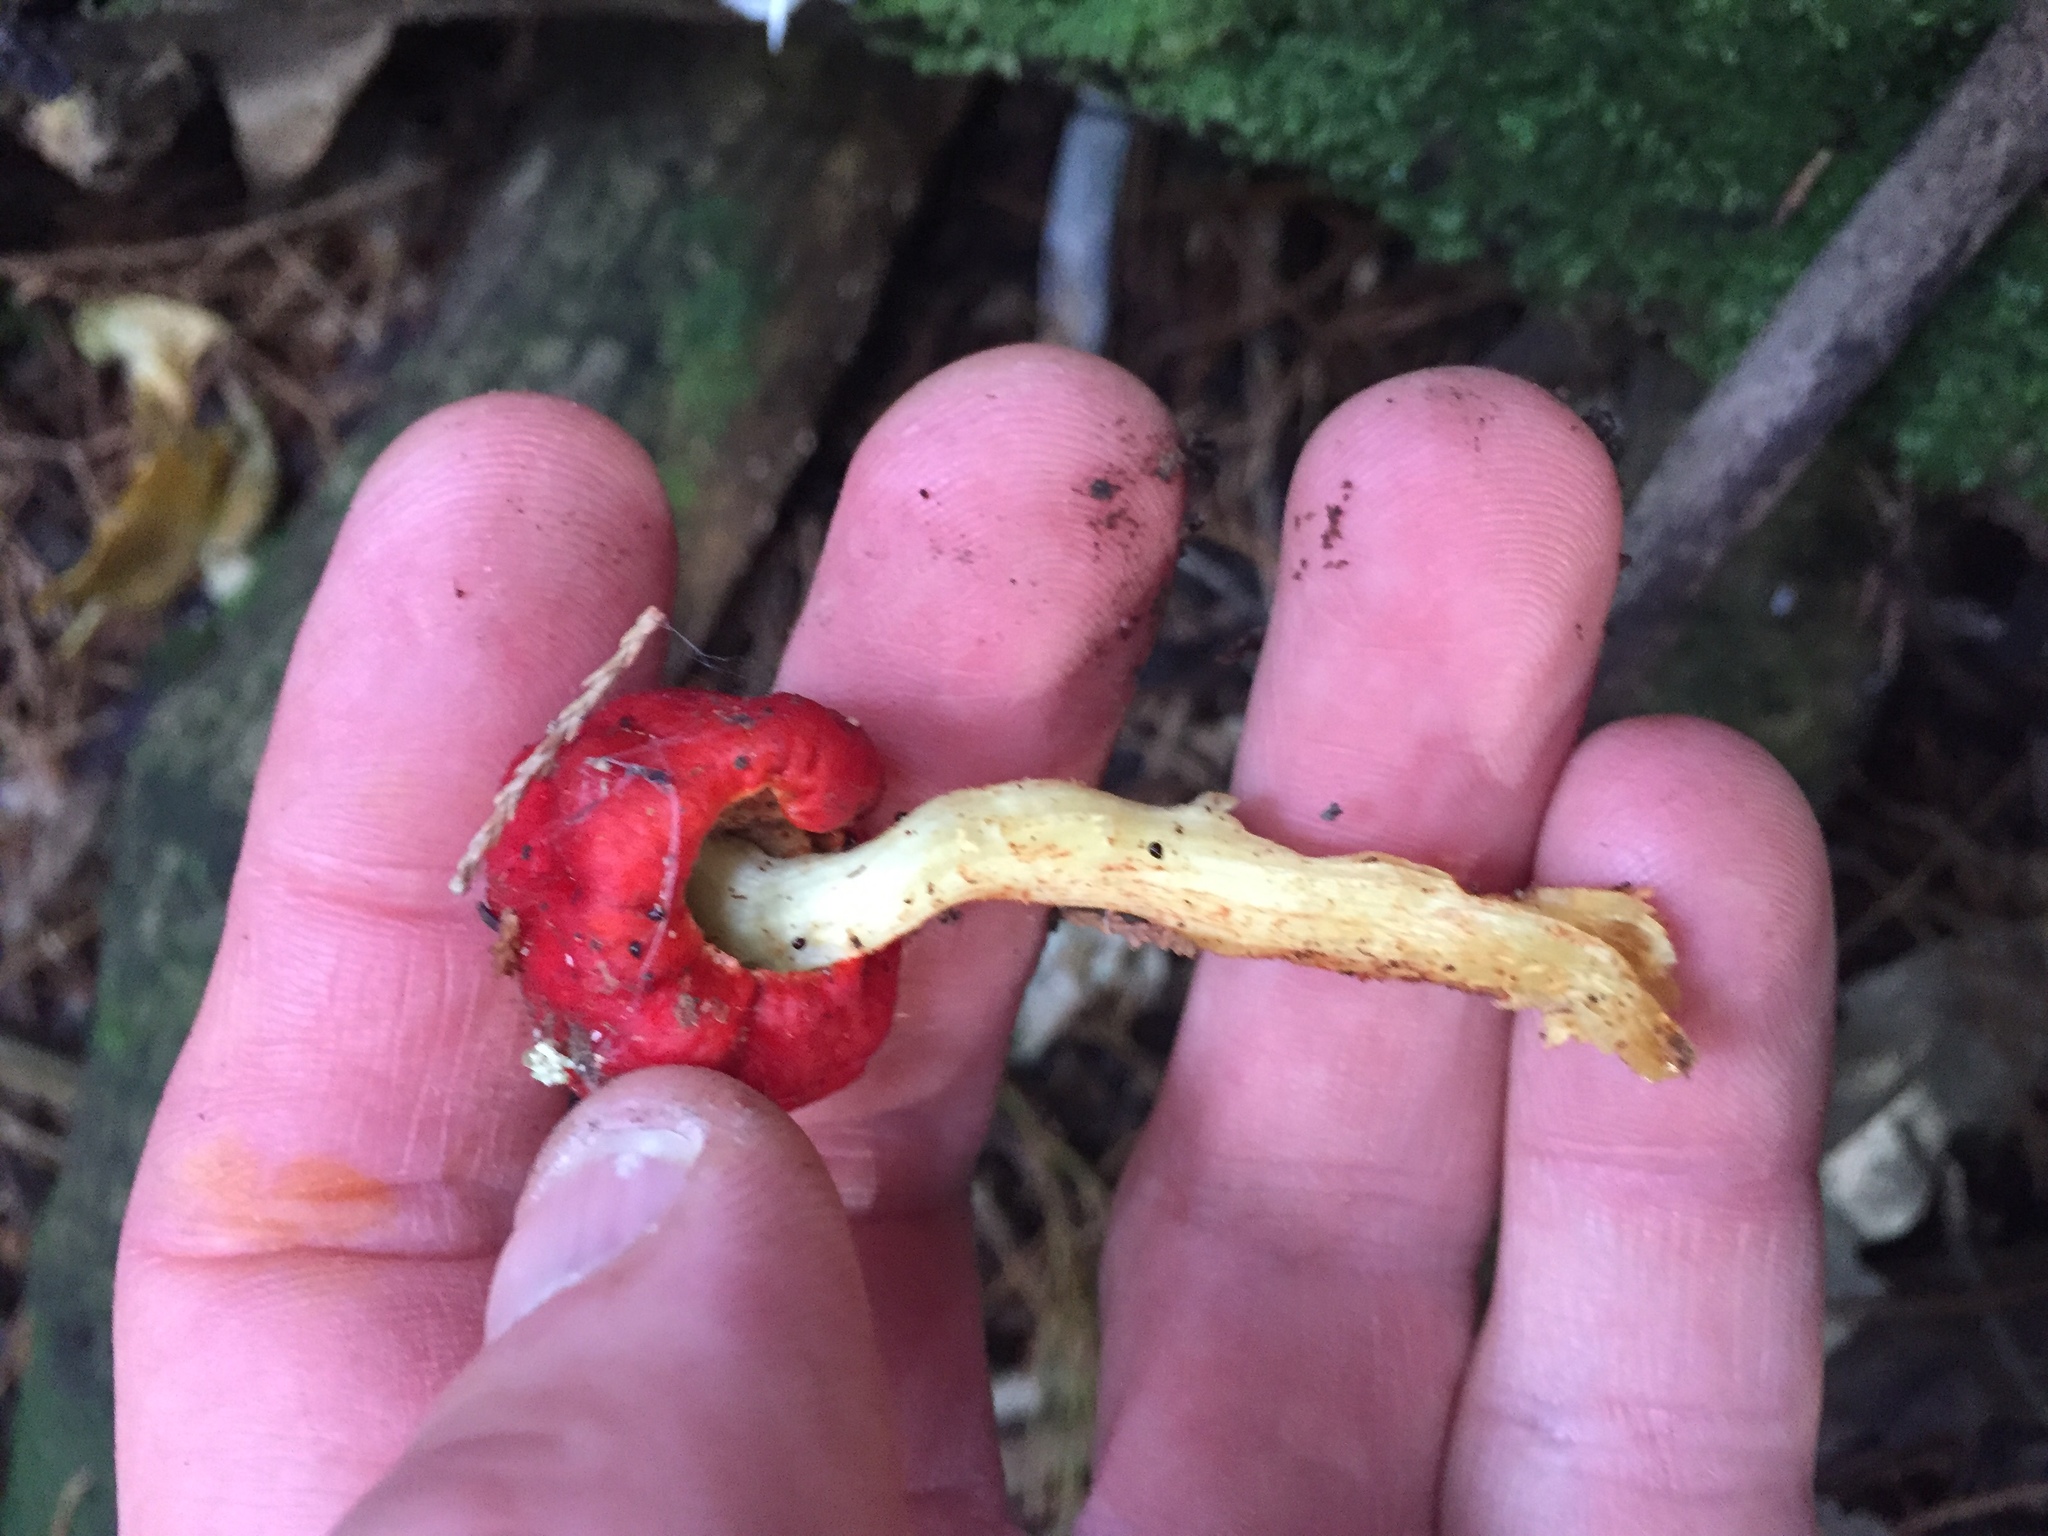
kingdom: Fungi
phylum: Basidiomycota
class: Agaricomycetes
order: Agaricales
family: Strophariaceae
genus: Leratiomyces
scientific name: Leratiomyces erythrocephalus
